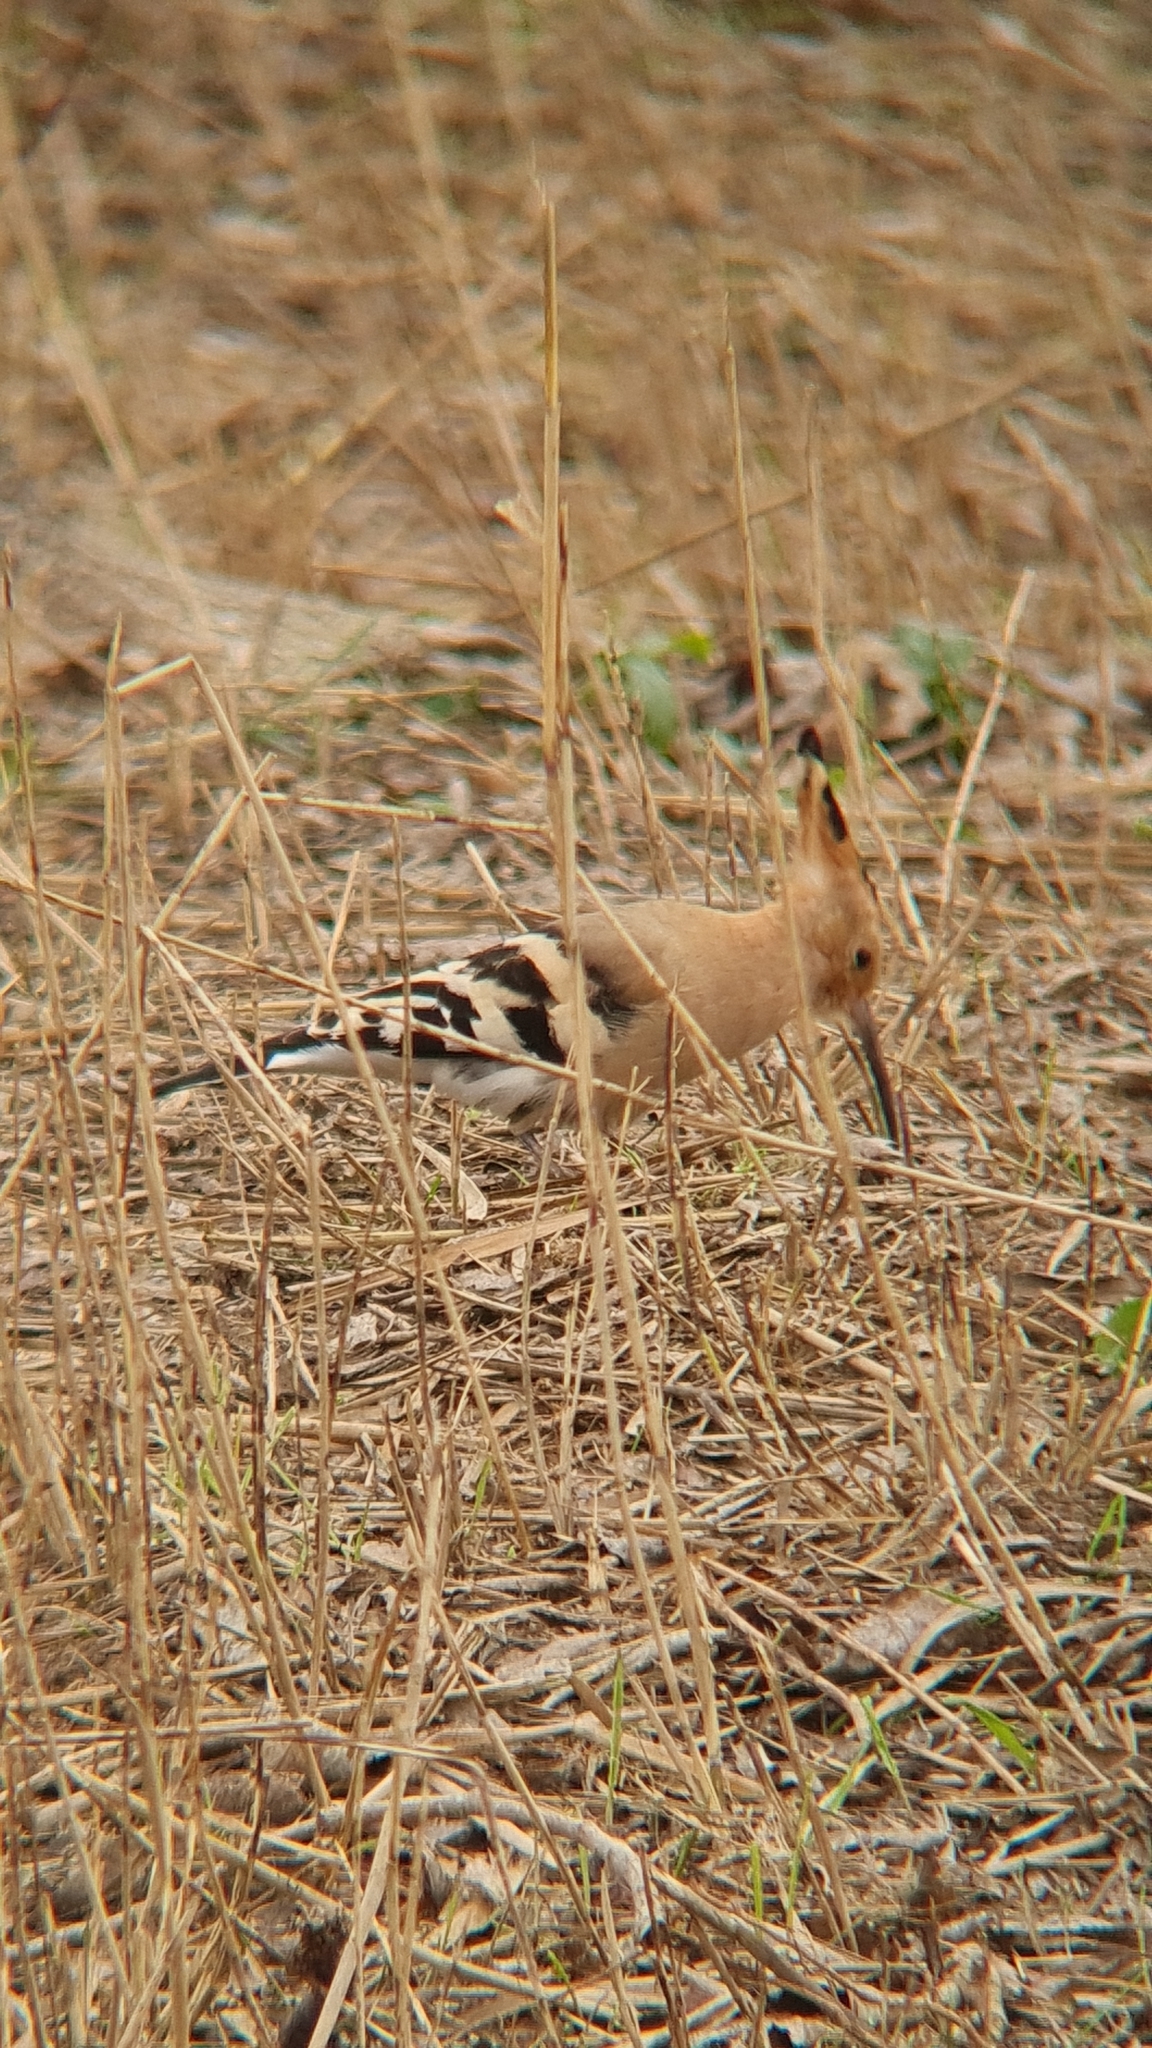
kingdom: Animalia
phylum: Chordata
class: Aves
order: Bucerotiformes
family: Upupidae
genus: Upupa
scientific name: Upupa epops
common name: Eurasian hoopoe
